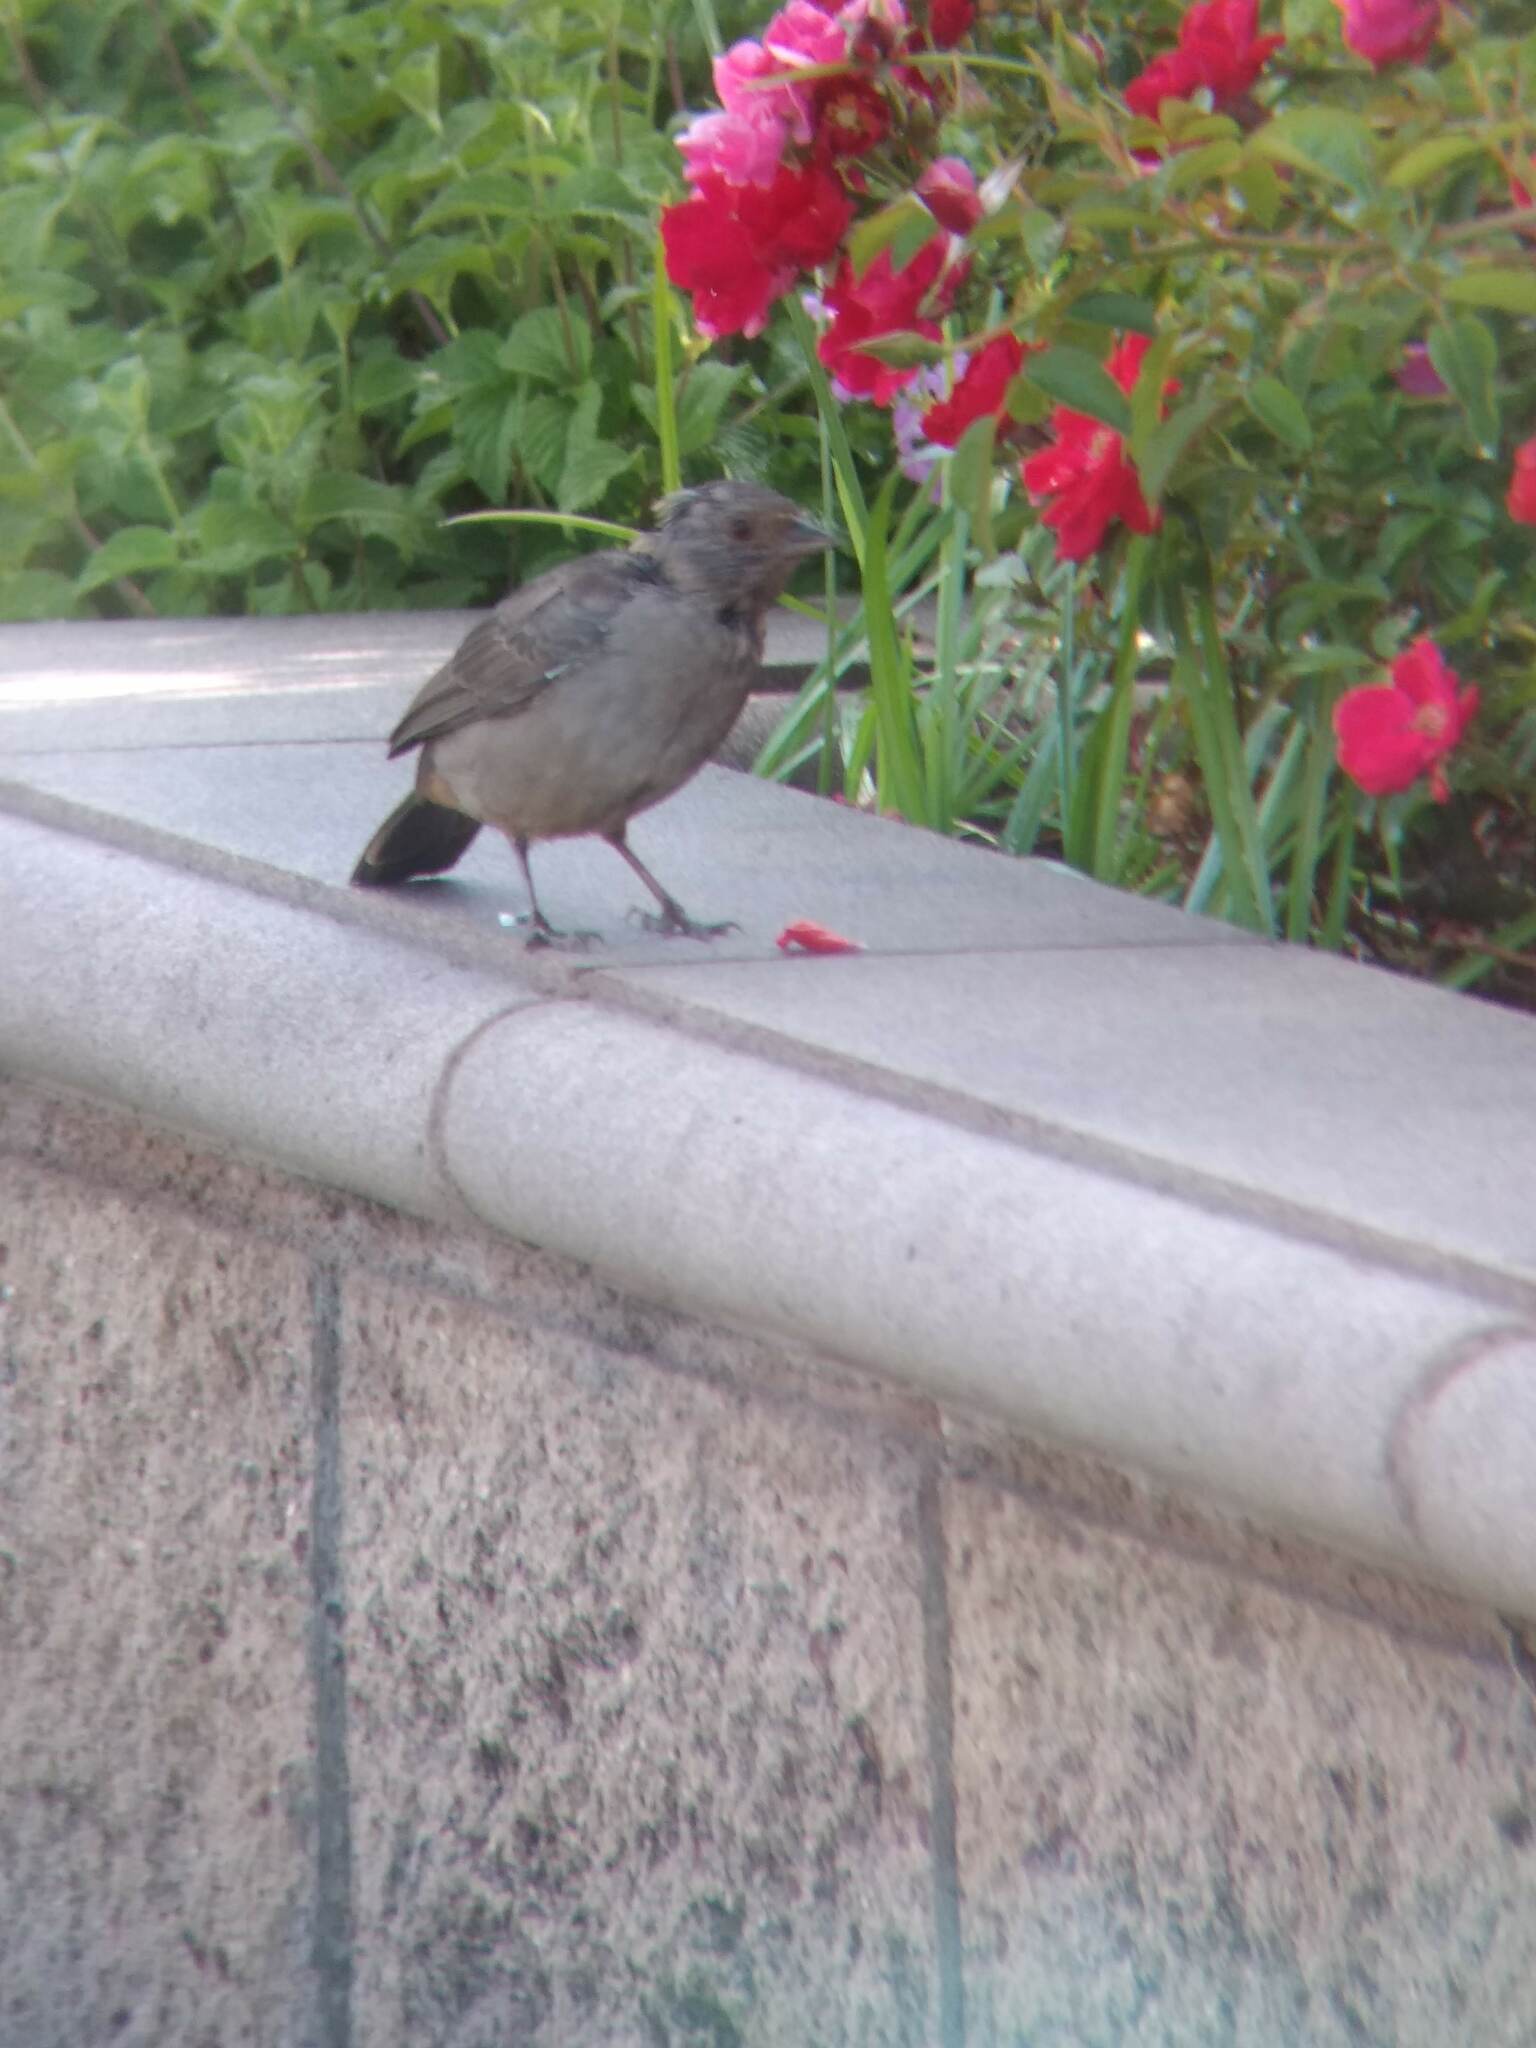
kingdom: Animalia
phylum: Chordata
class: Aves
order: Passeriformes
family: Passerellidae
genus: Melozone
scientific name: Melozone crissalis
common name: California towhee
